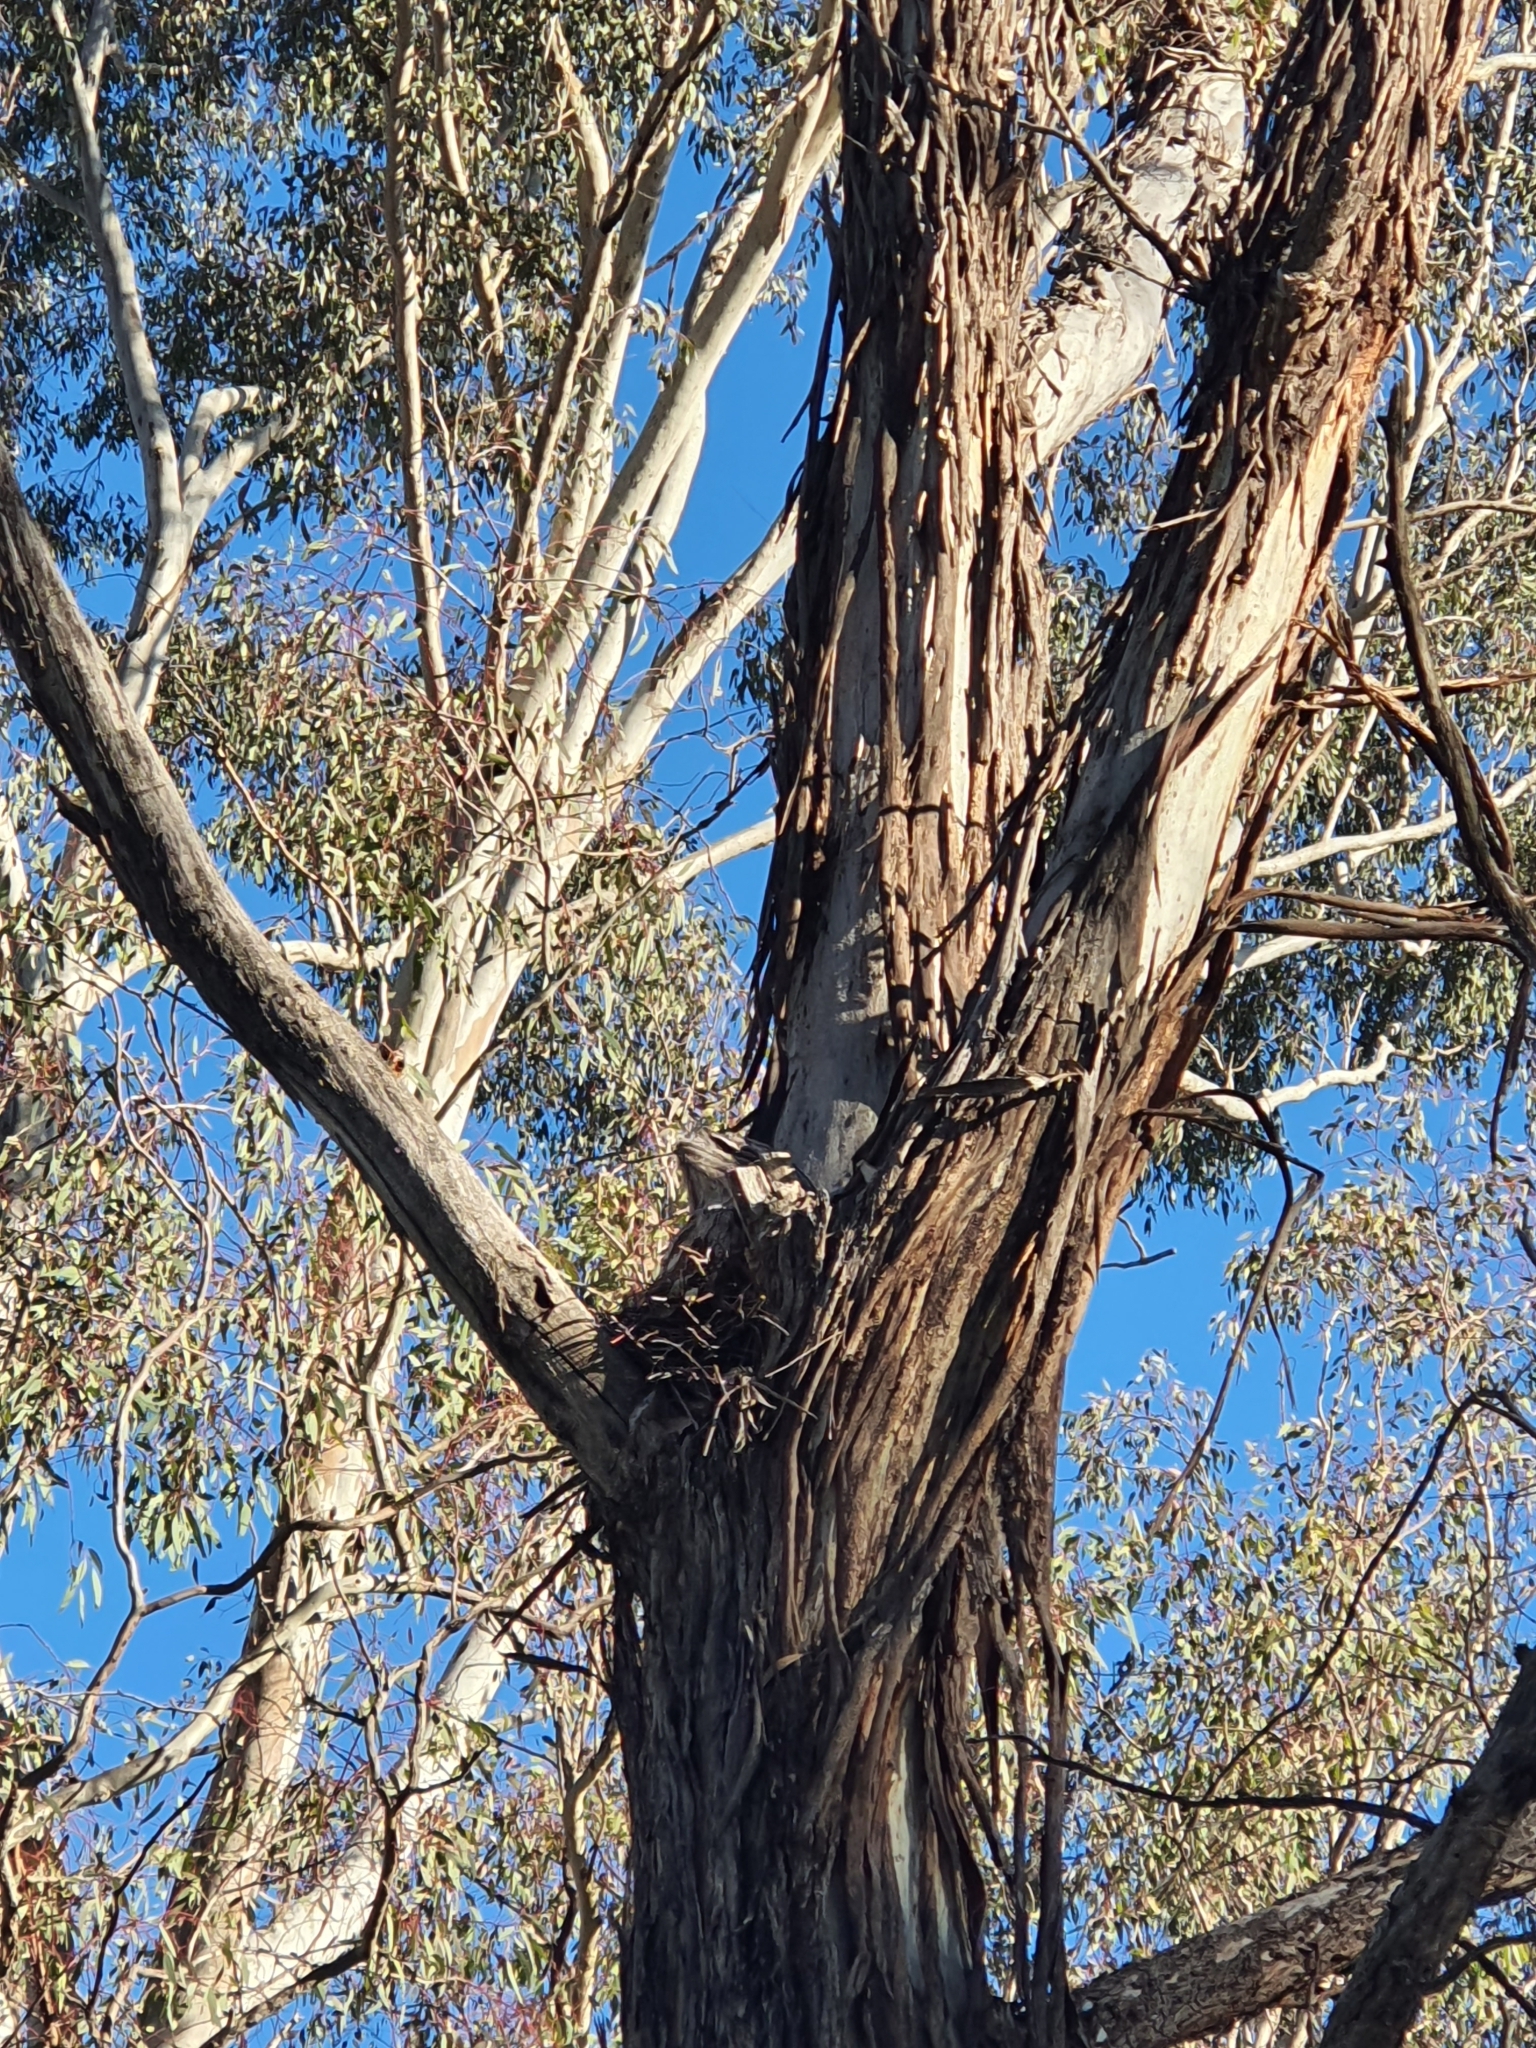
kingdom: Animalia
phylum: Chordata
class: Aves
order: Caprimulgiformes
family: Podargidae
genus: Podargus
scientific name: Podargus strigoides
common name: Tawny frogmouth
